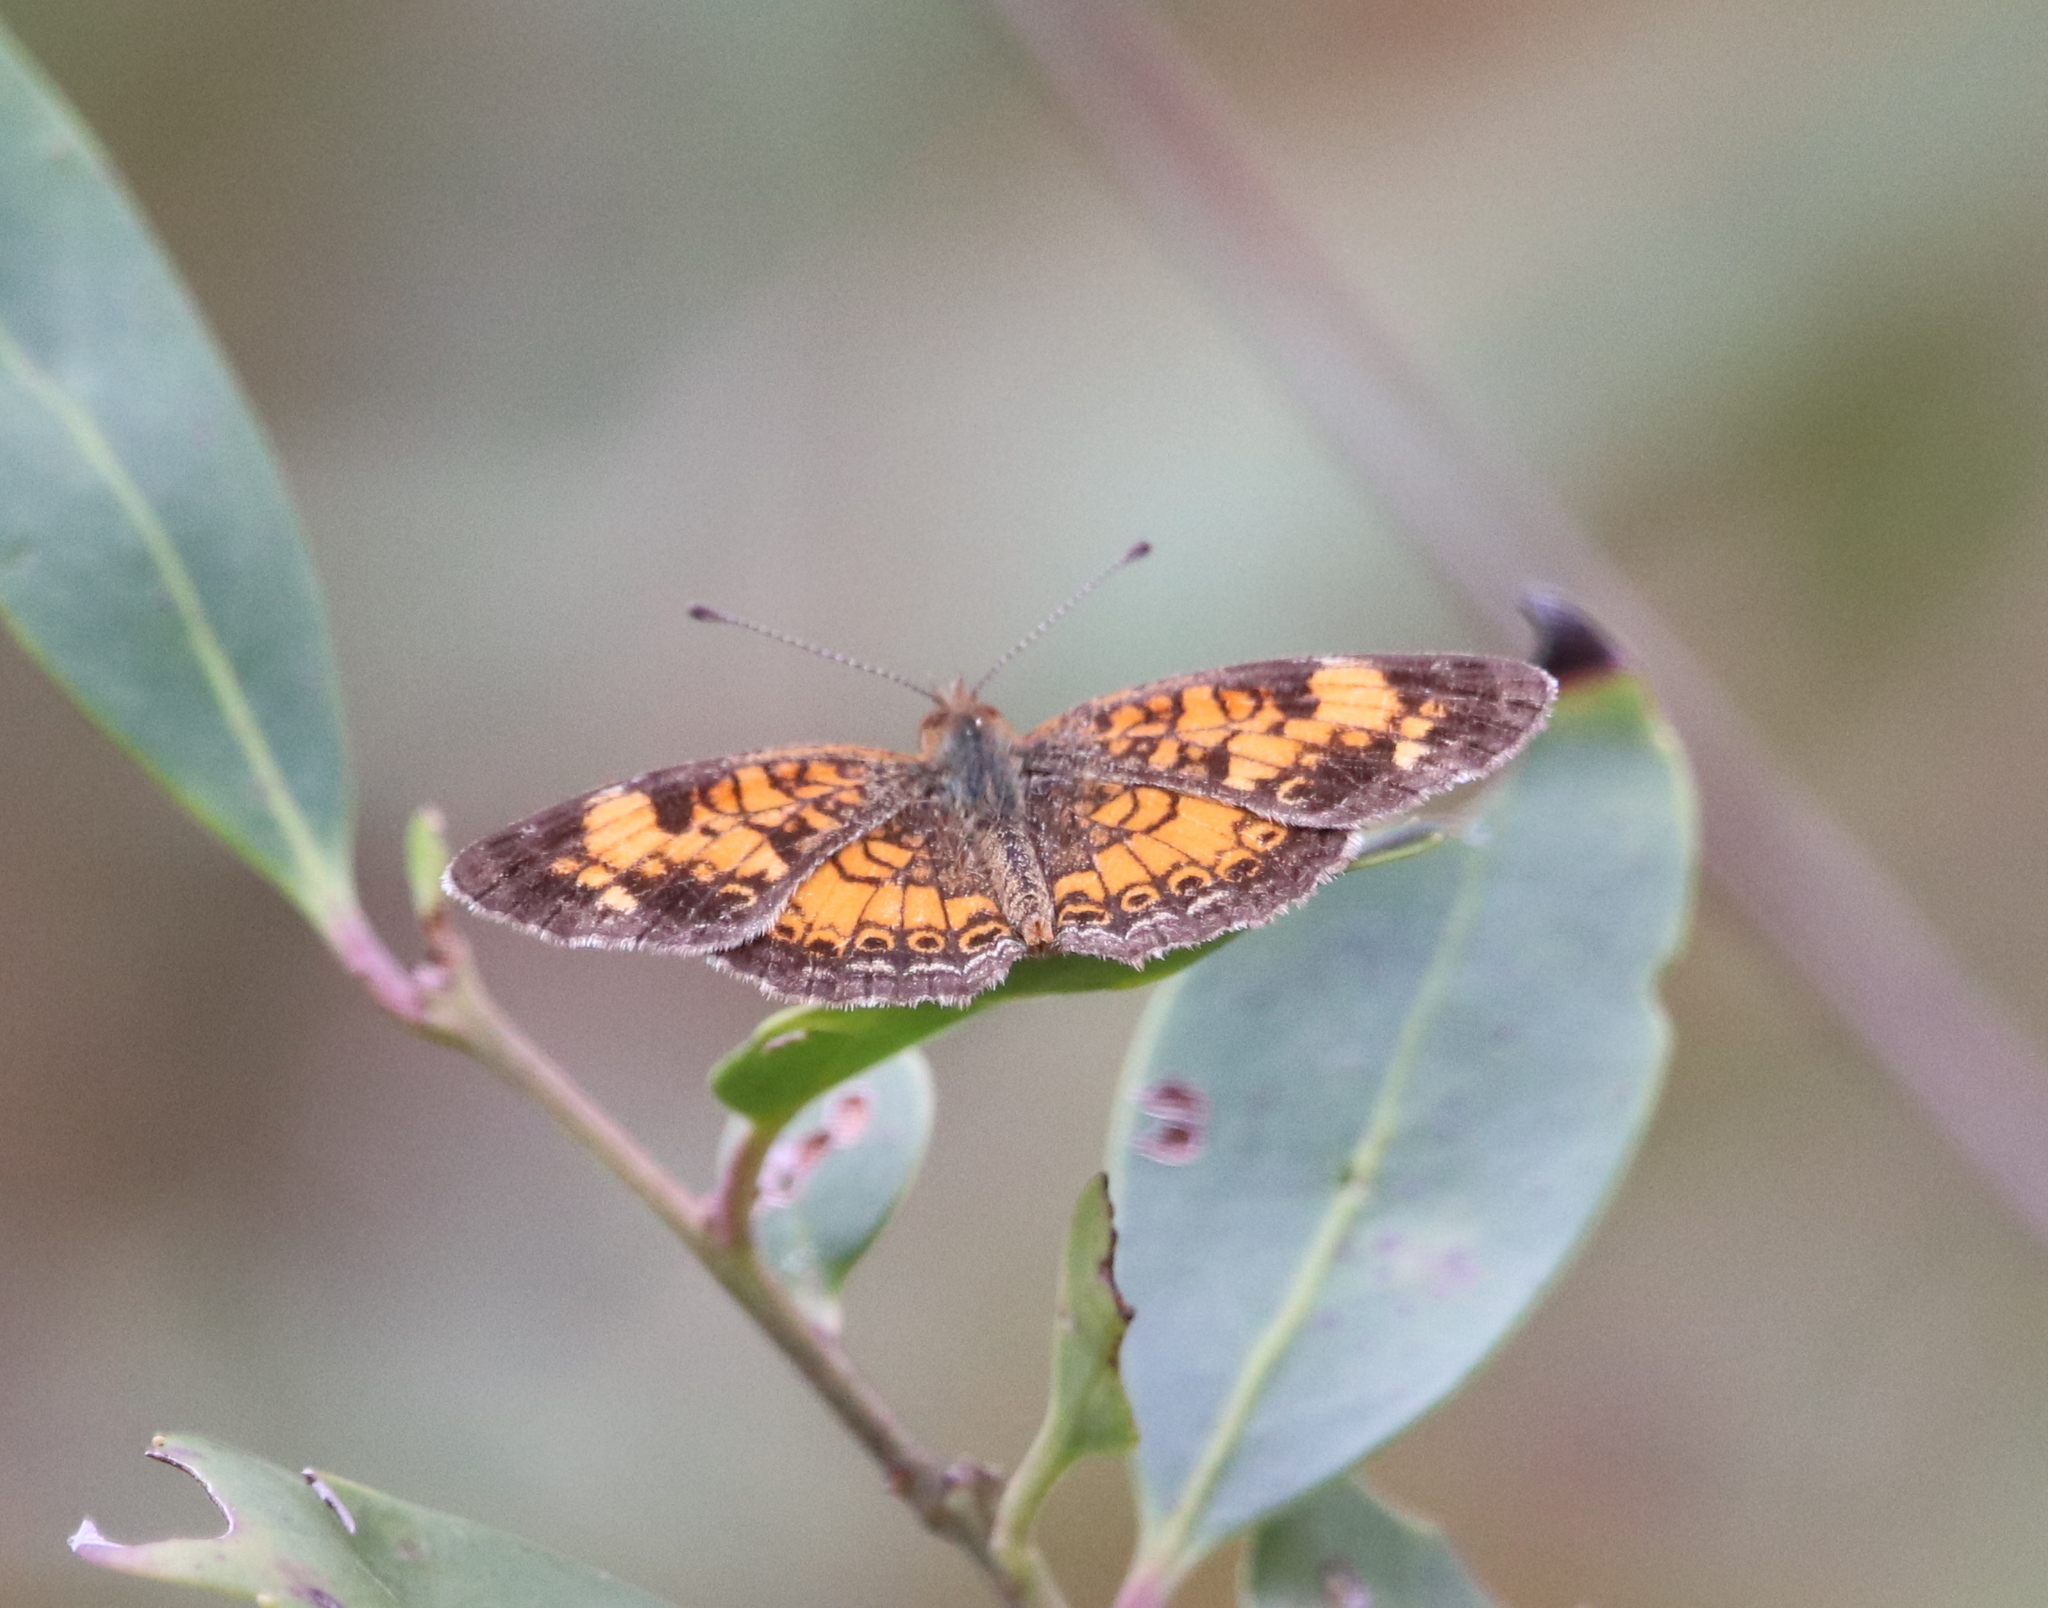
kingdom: Animalia
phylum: Arthropoda
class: Insecta
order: Lepidoptera
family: Nymphalidae
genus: Phyciodes
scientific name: Phyciodes tharos
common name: Pearl crescent
